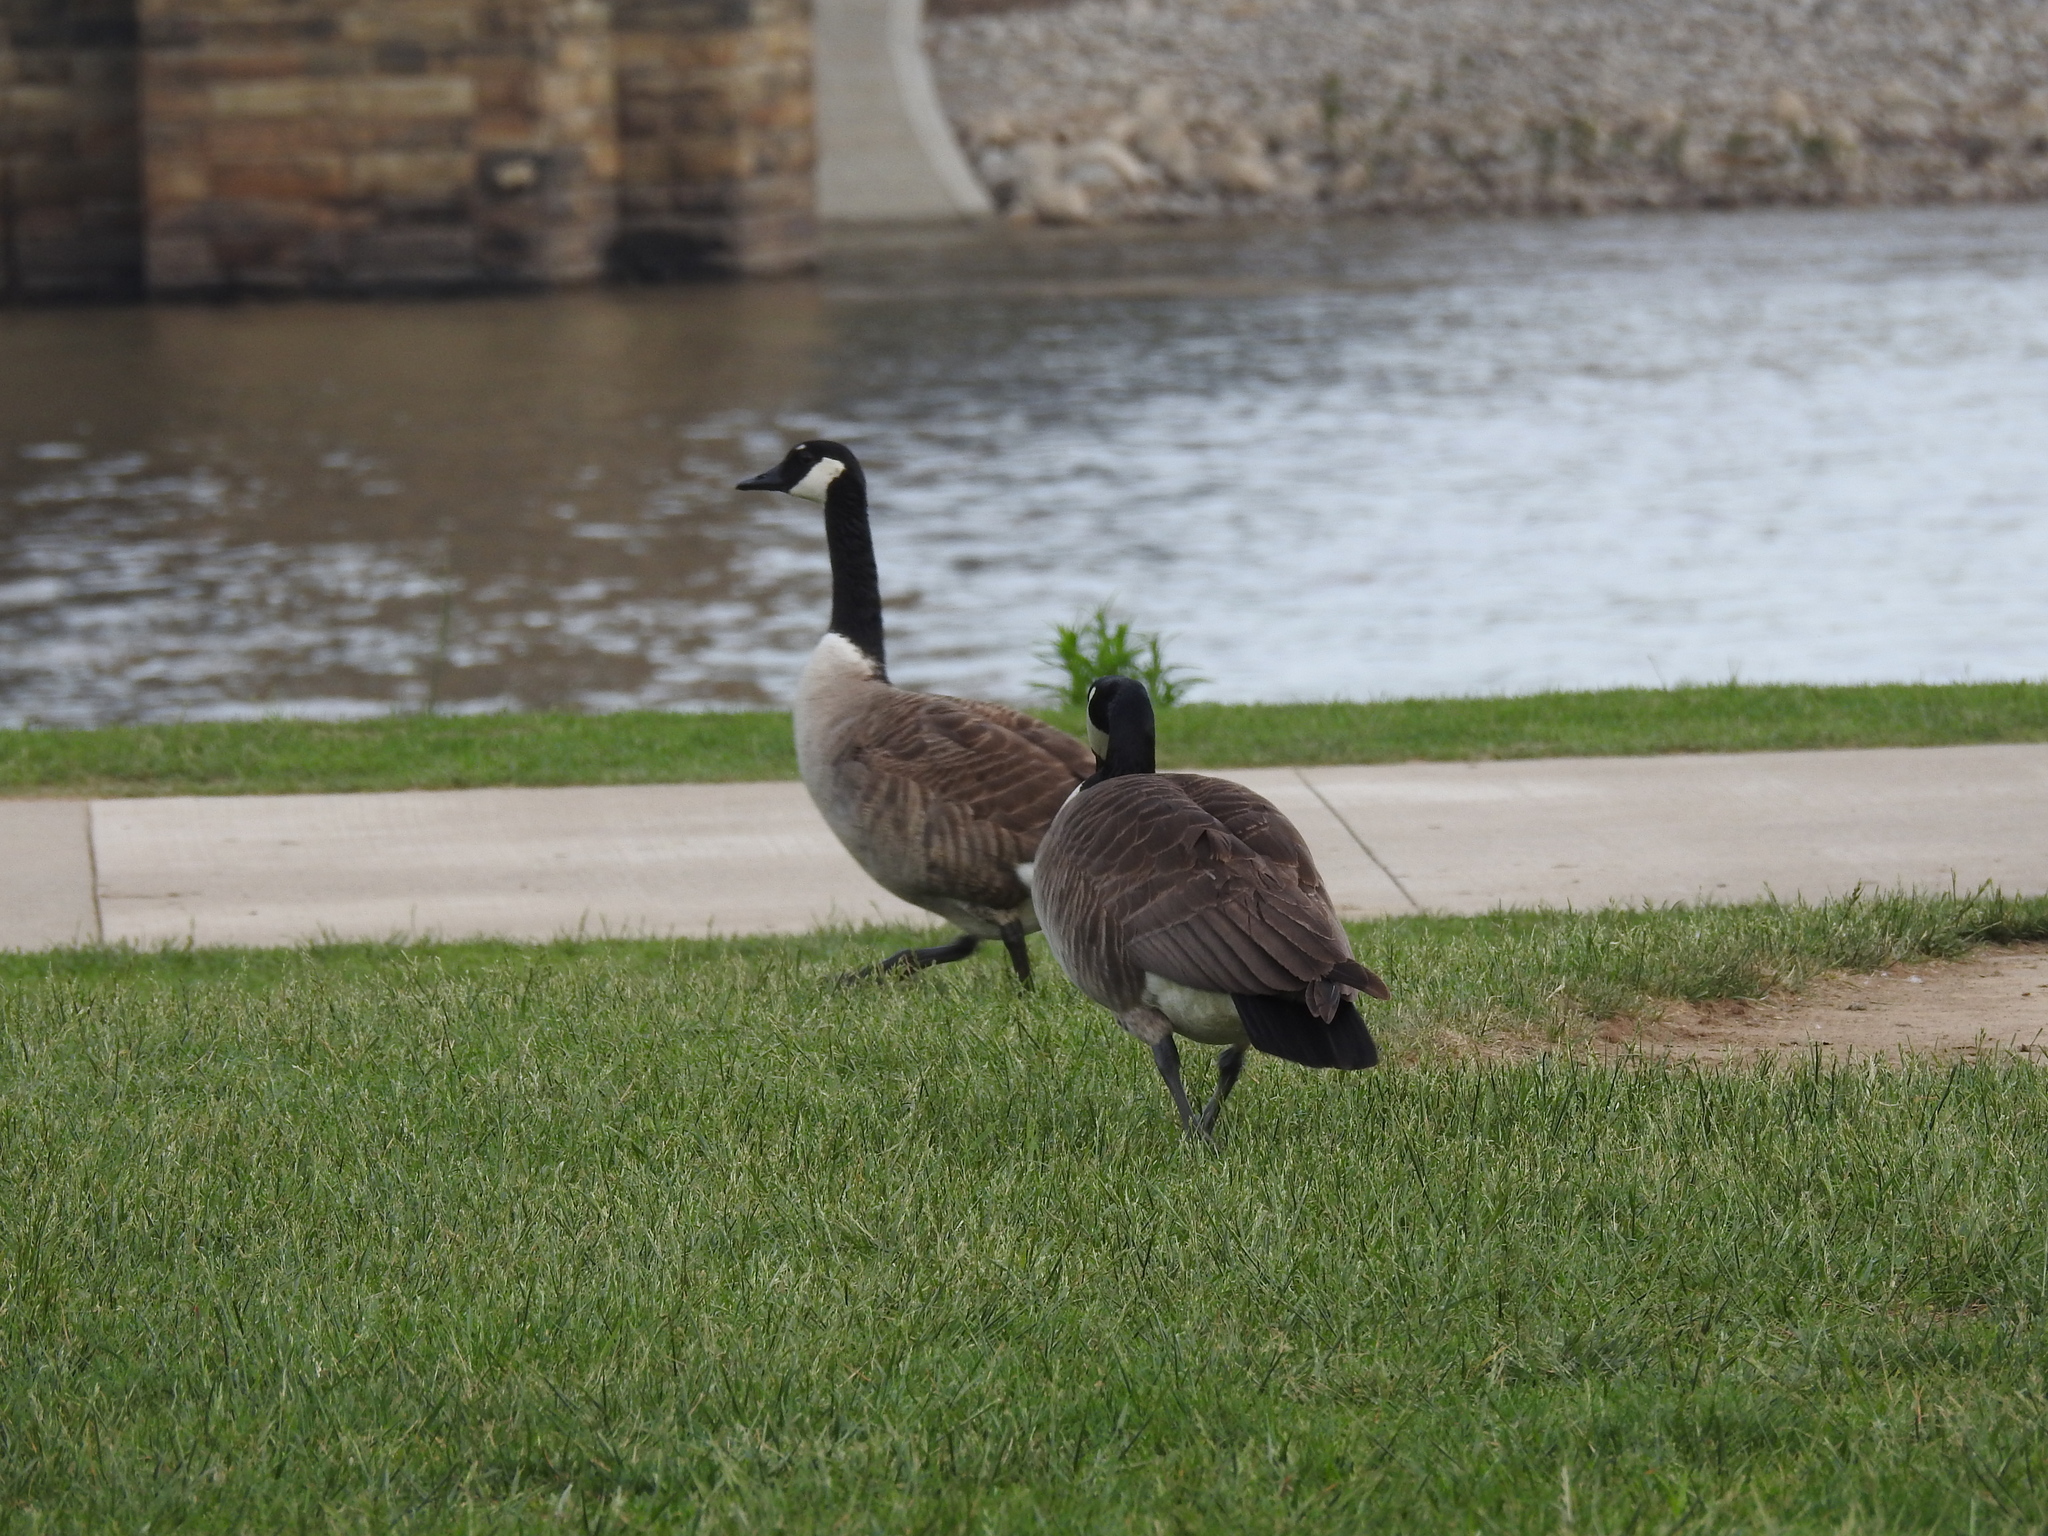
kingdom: Animalia
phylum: Chordata
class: Aves
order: Anseriformes
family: Anatidae
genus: Branta
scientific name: Branta canadensis
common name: Canada goose
